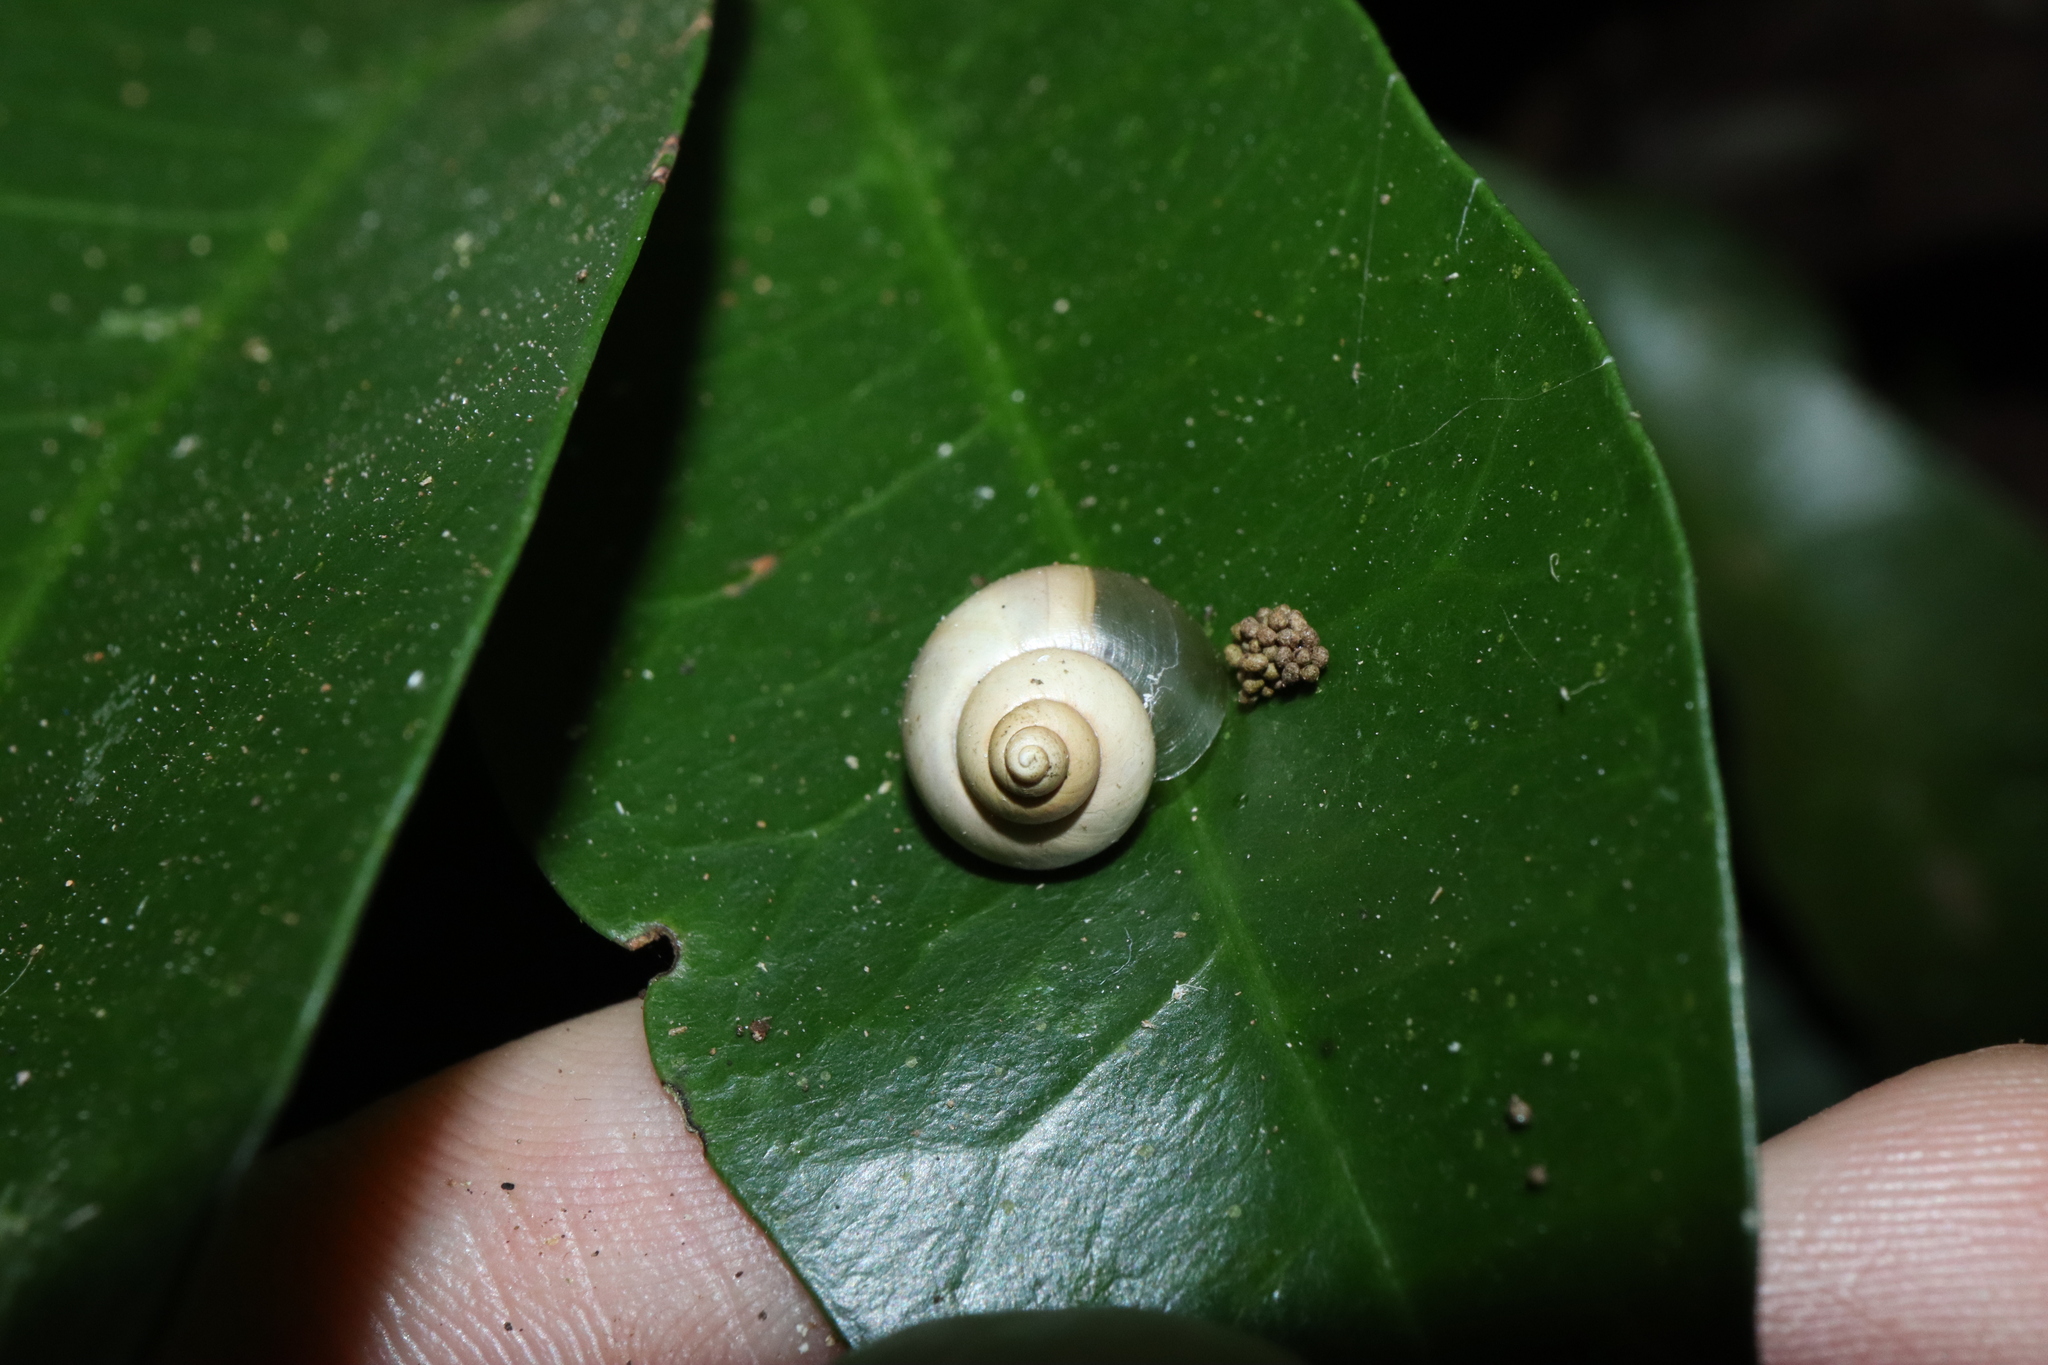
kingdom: Animalia
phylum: Mollusca
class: Gastropoda
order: Architaenioglossa
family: Cyclophoridae
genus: Leptopoma
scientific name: Leptopoma perlucidum
